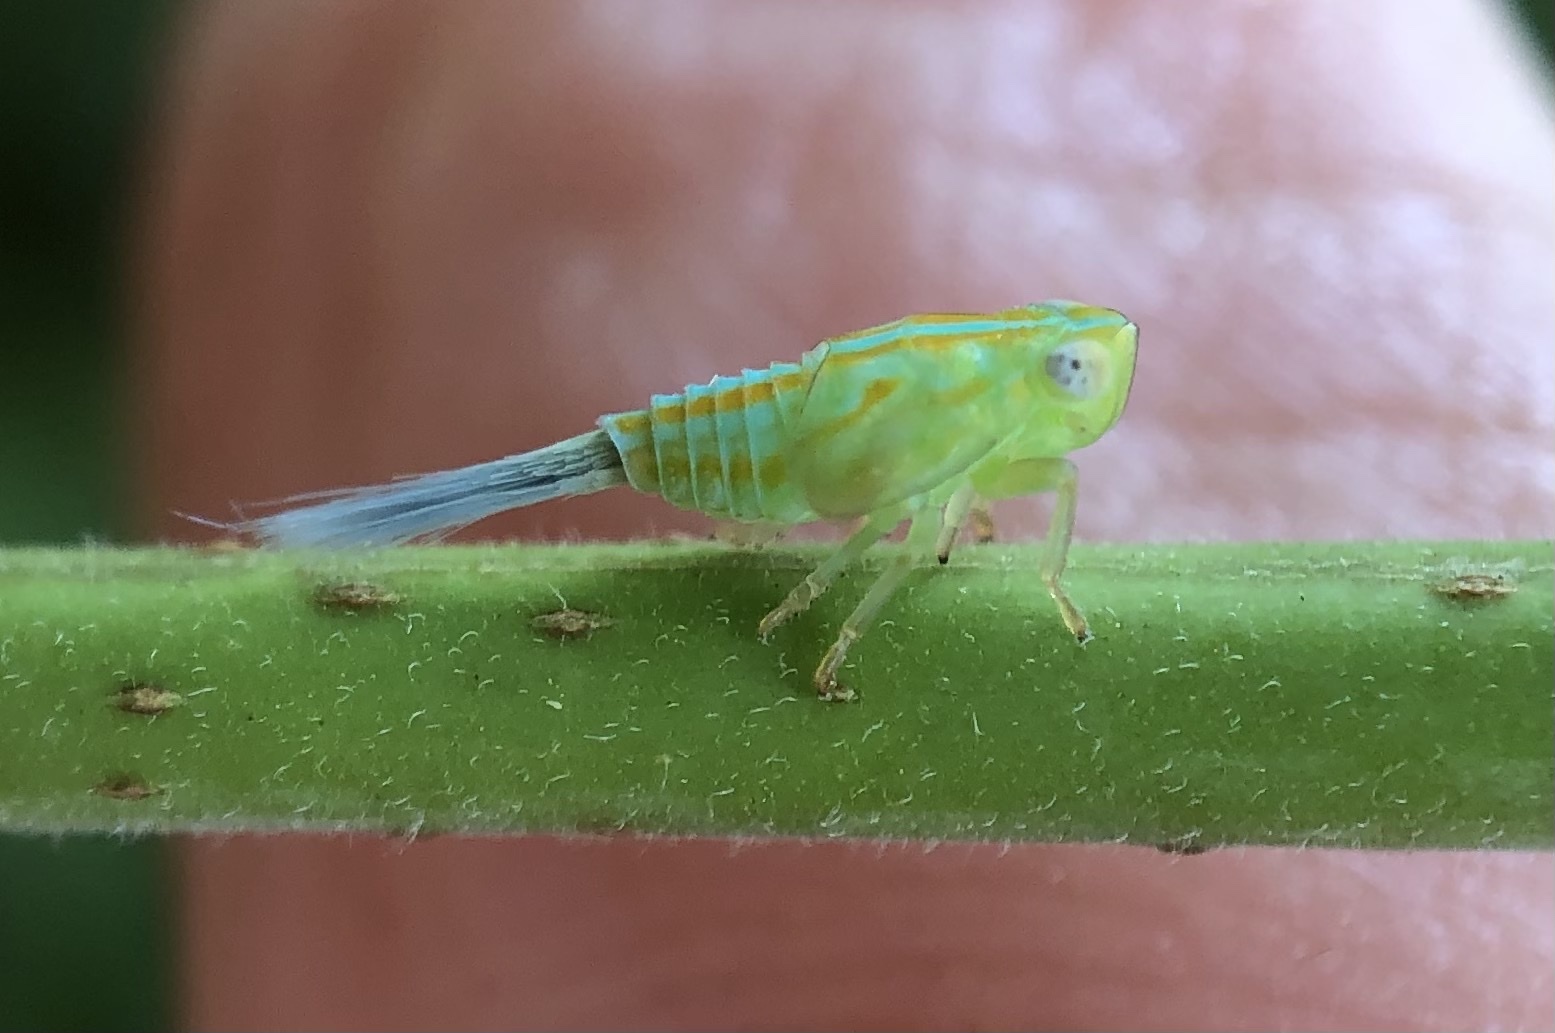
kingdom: Animalia
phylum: Arthropoda
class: Insecta
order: Hemiptera
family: Issidae
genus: Aplos
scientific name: Aplos simplex
